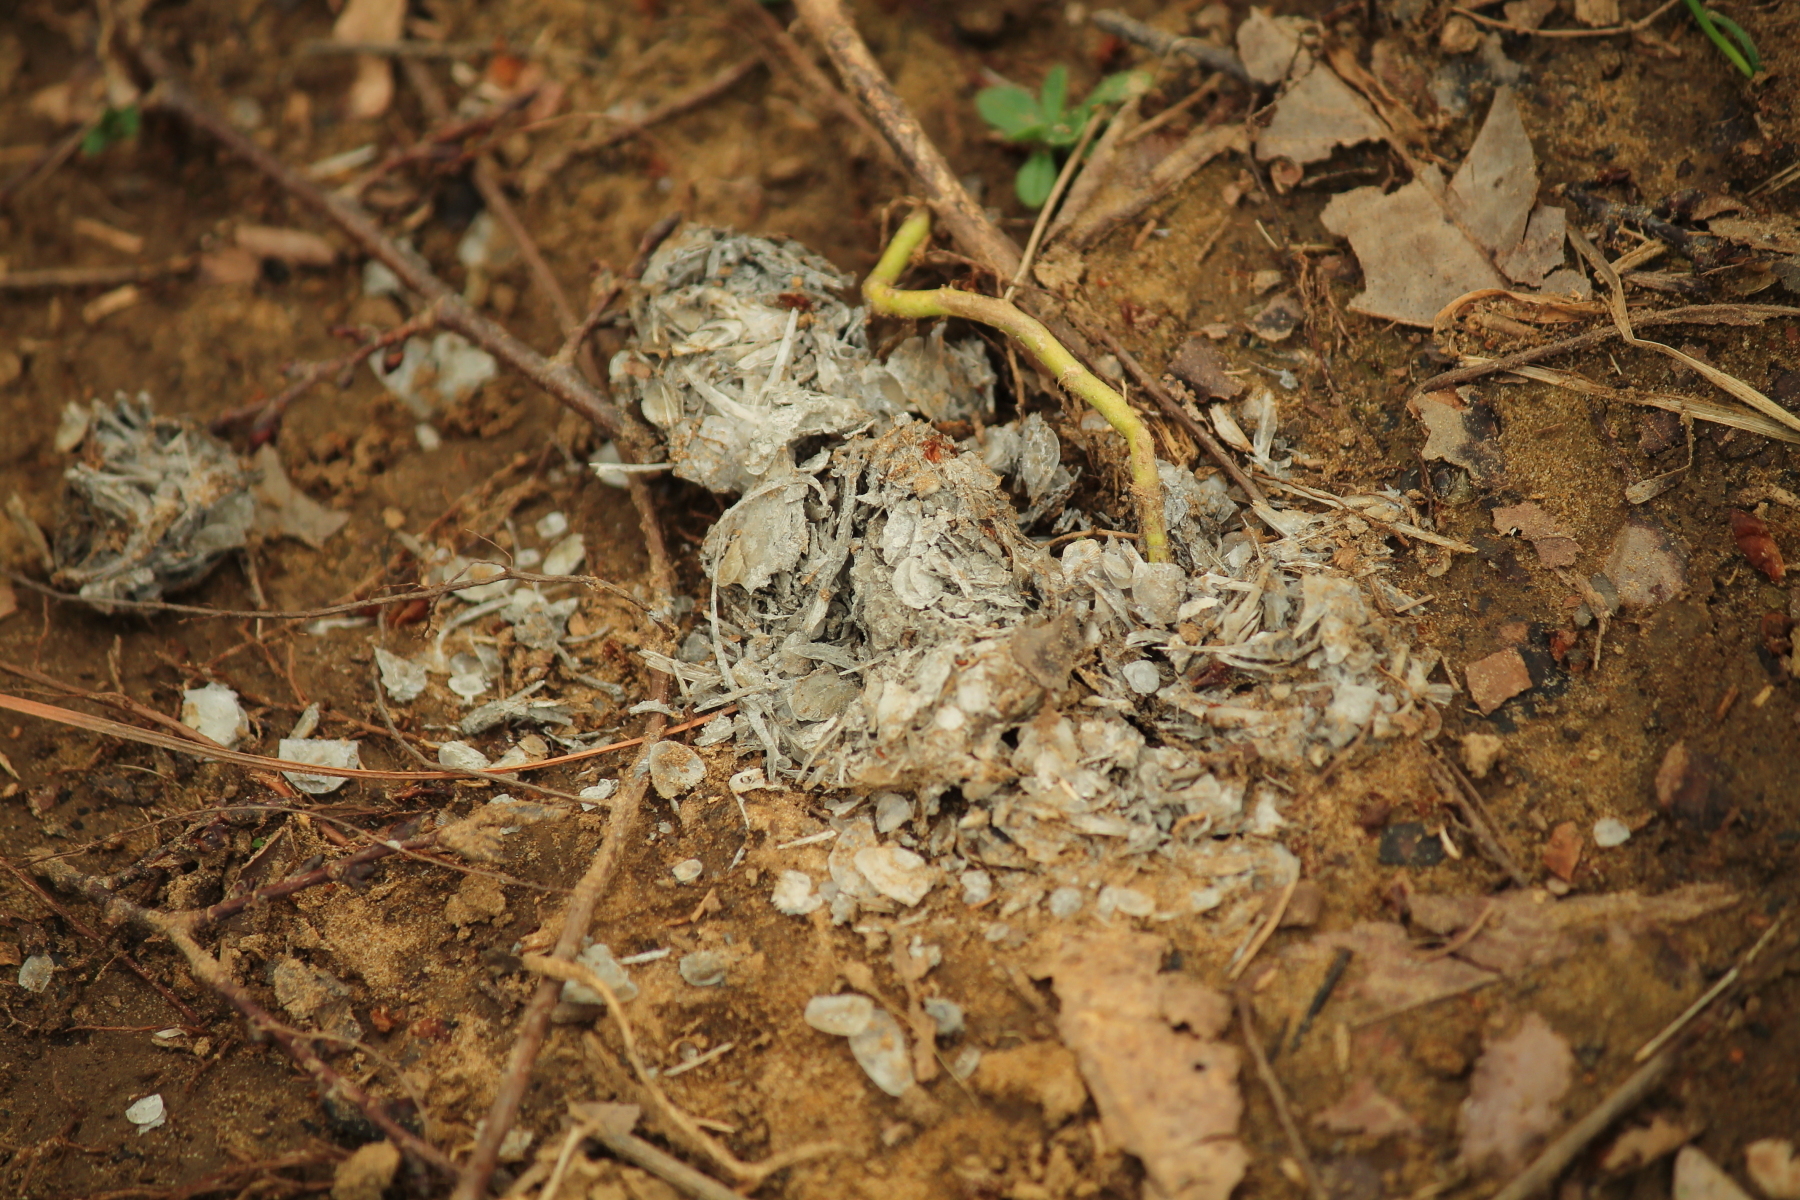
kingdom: Animalia
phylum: Chordata
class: Mammalia
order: Carnivora
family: Mustelidae
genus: Lontra
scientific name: Lontra canadensis
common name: North american river otter
